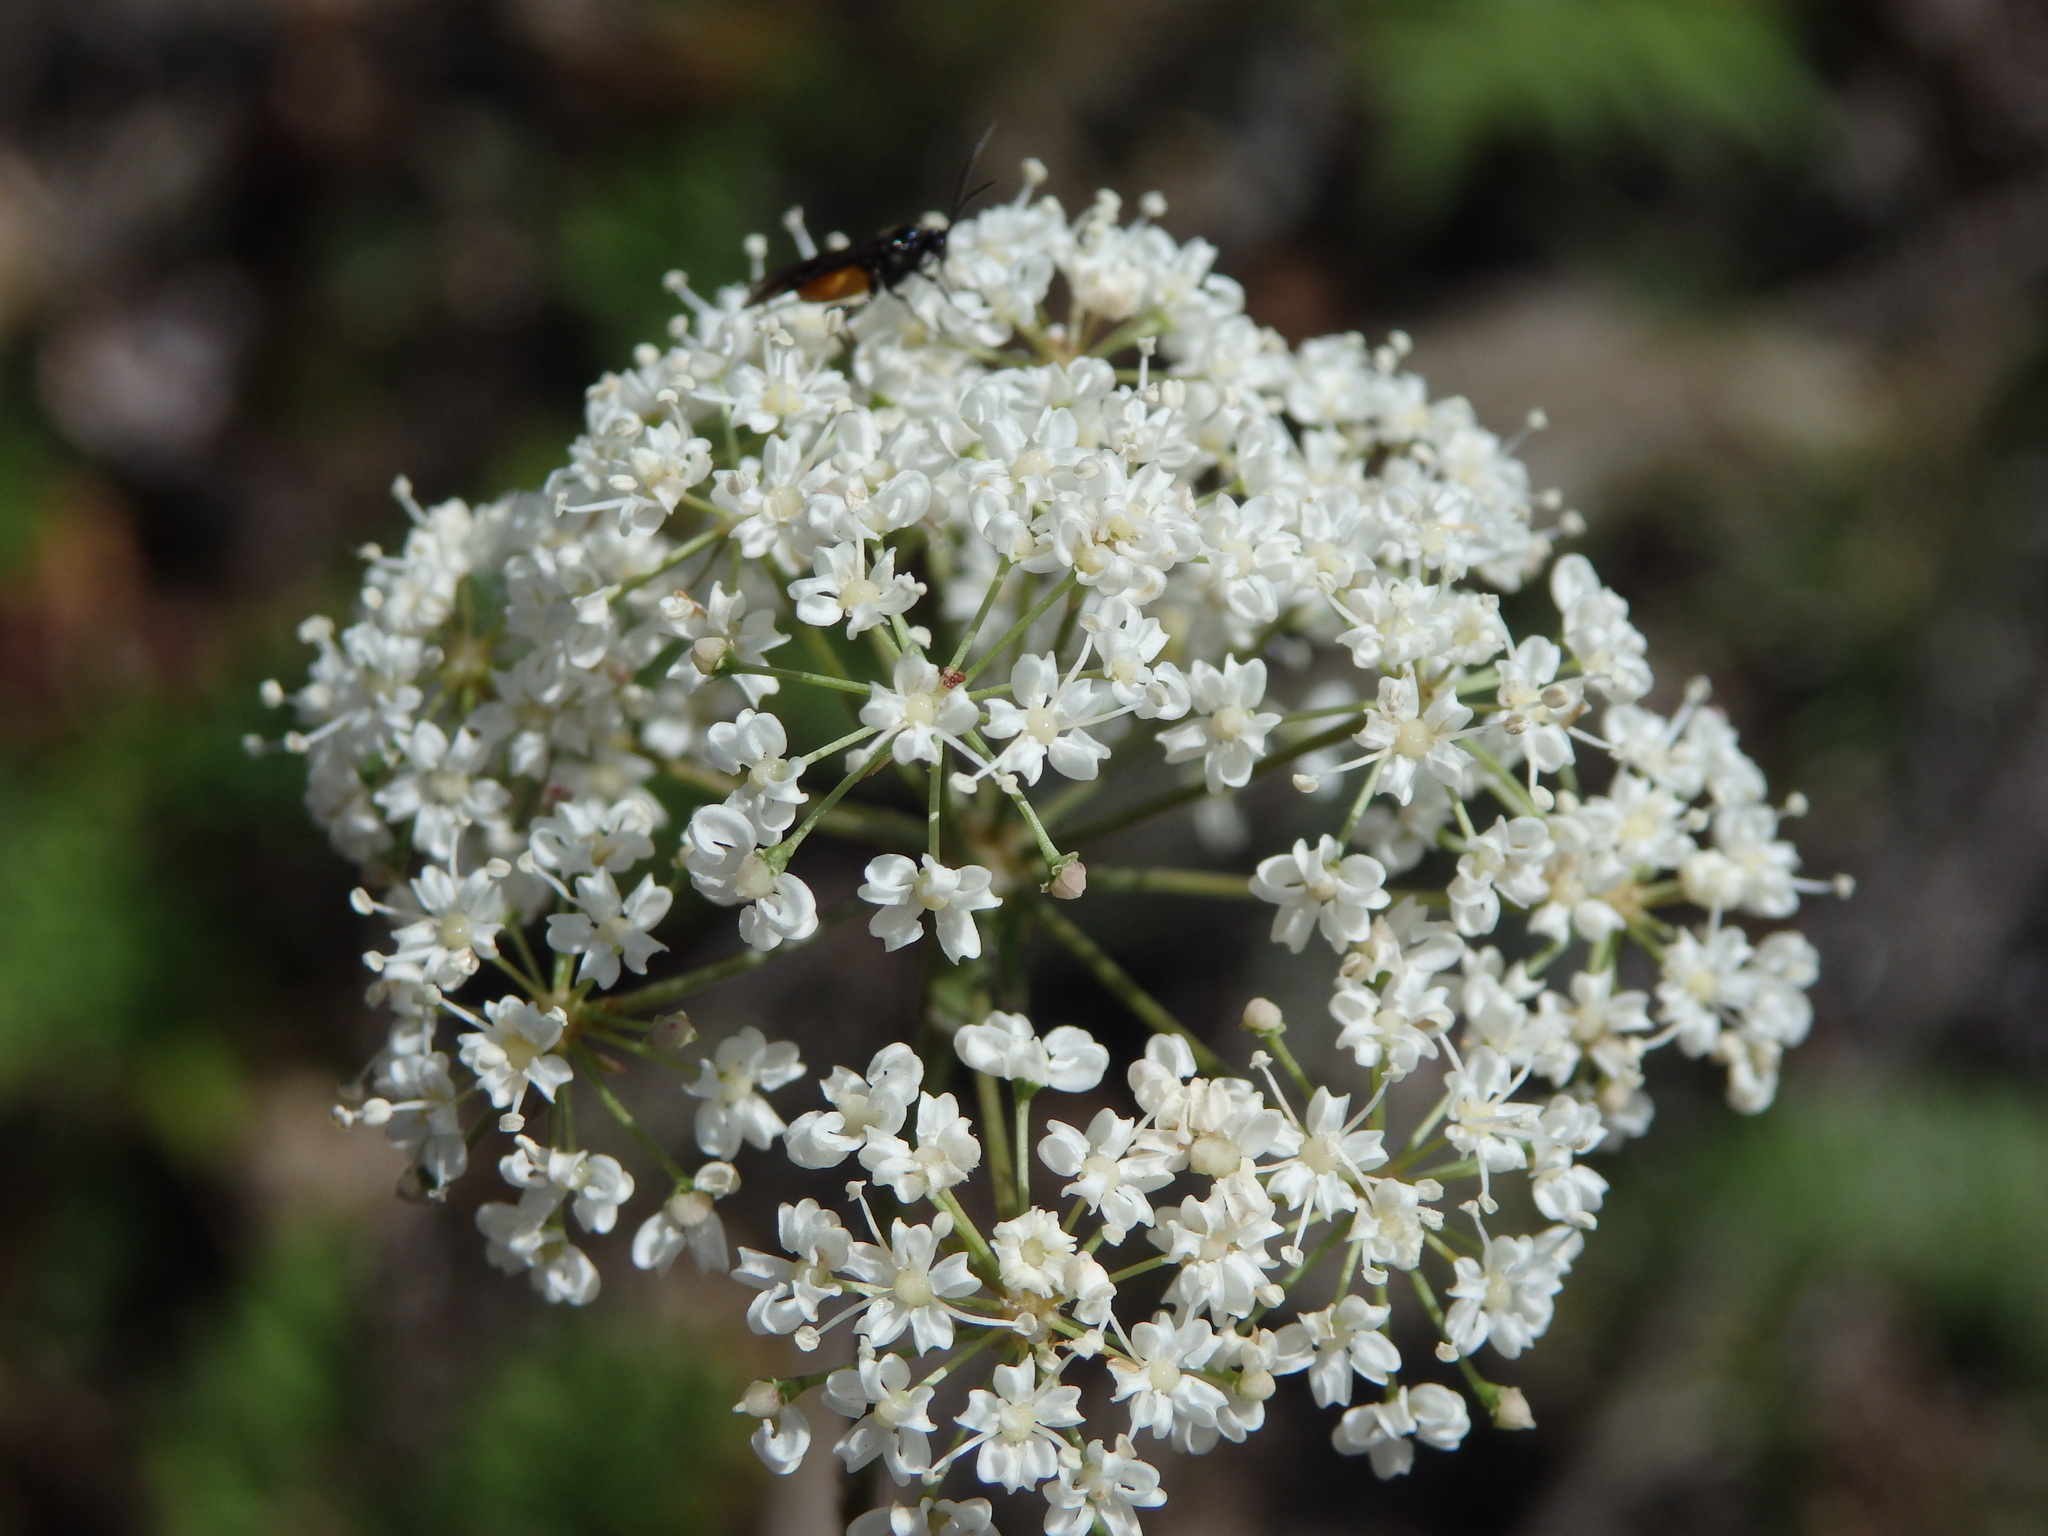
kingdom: Plantae
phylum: Tracheophyta
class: Magnoliopsida
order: Apiales
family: Apiaceae
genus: Physospermum
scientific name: Physospermum cornubiense
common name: Bladderseed
